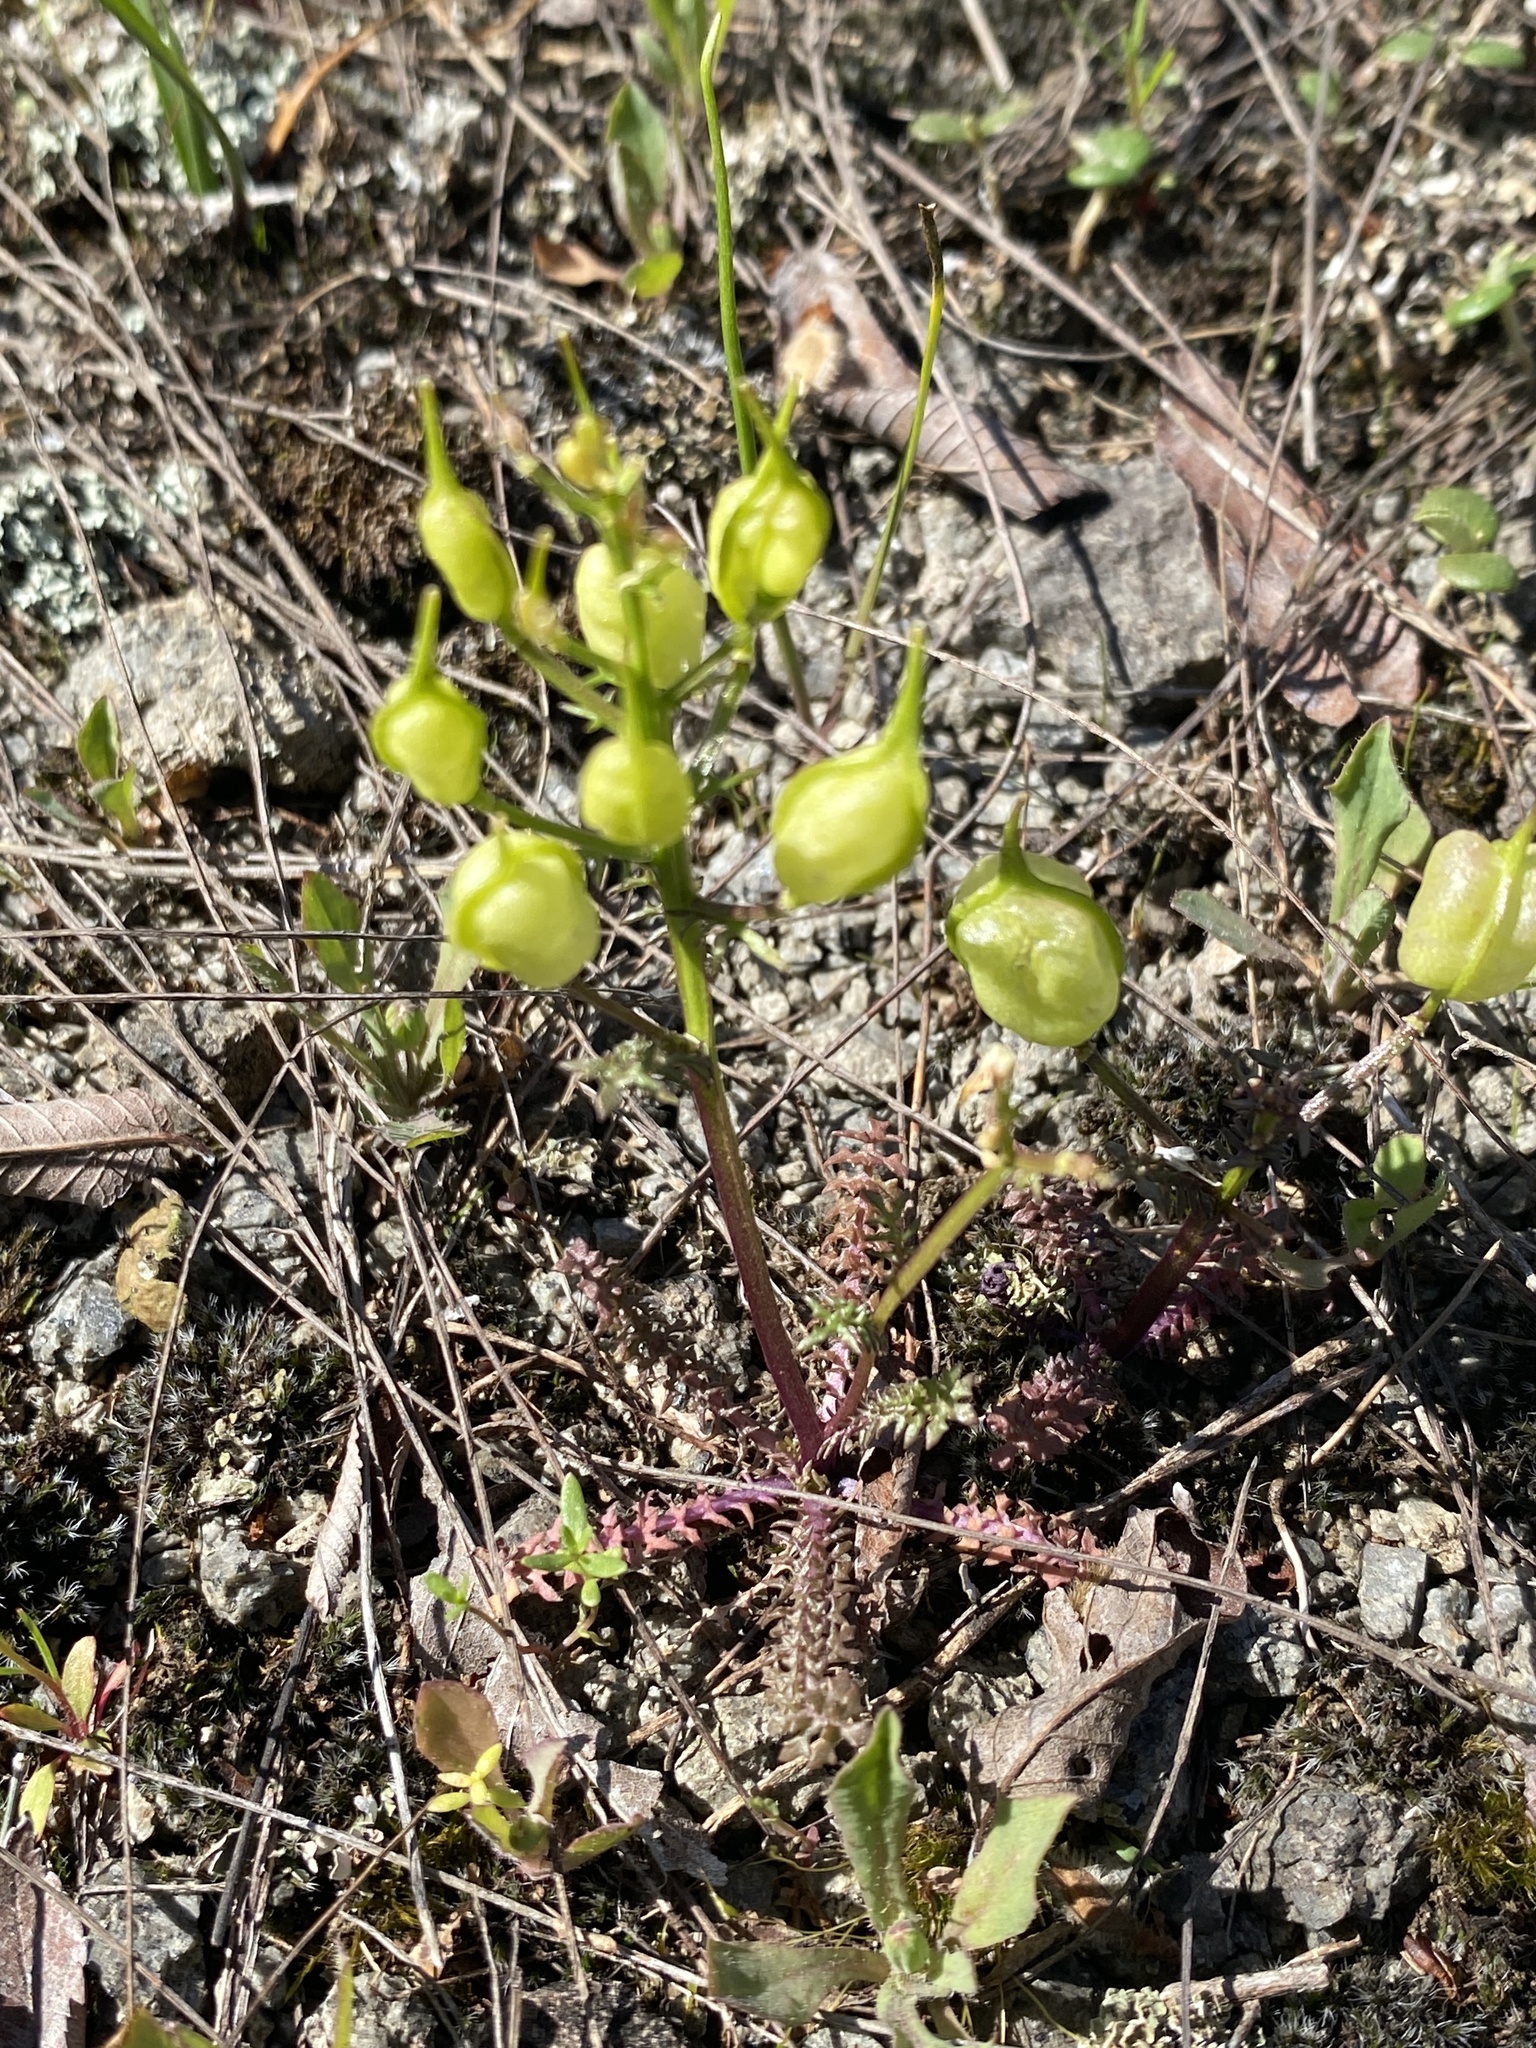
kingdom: Plantae
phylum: Tracheophyta
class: Magnoliopsida
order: Brassicales
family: Brassicaceae
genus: Selenia
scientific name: Selenia aurea
